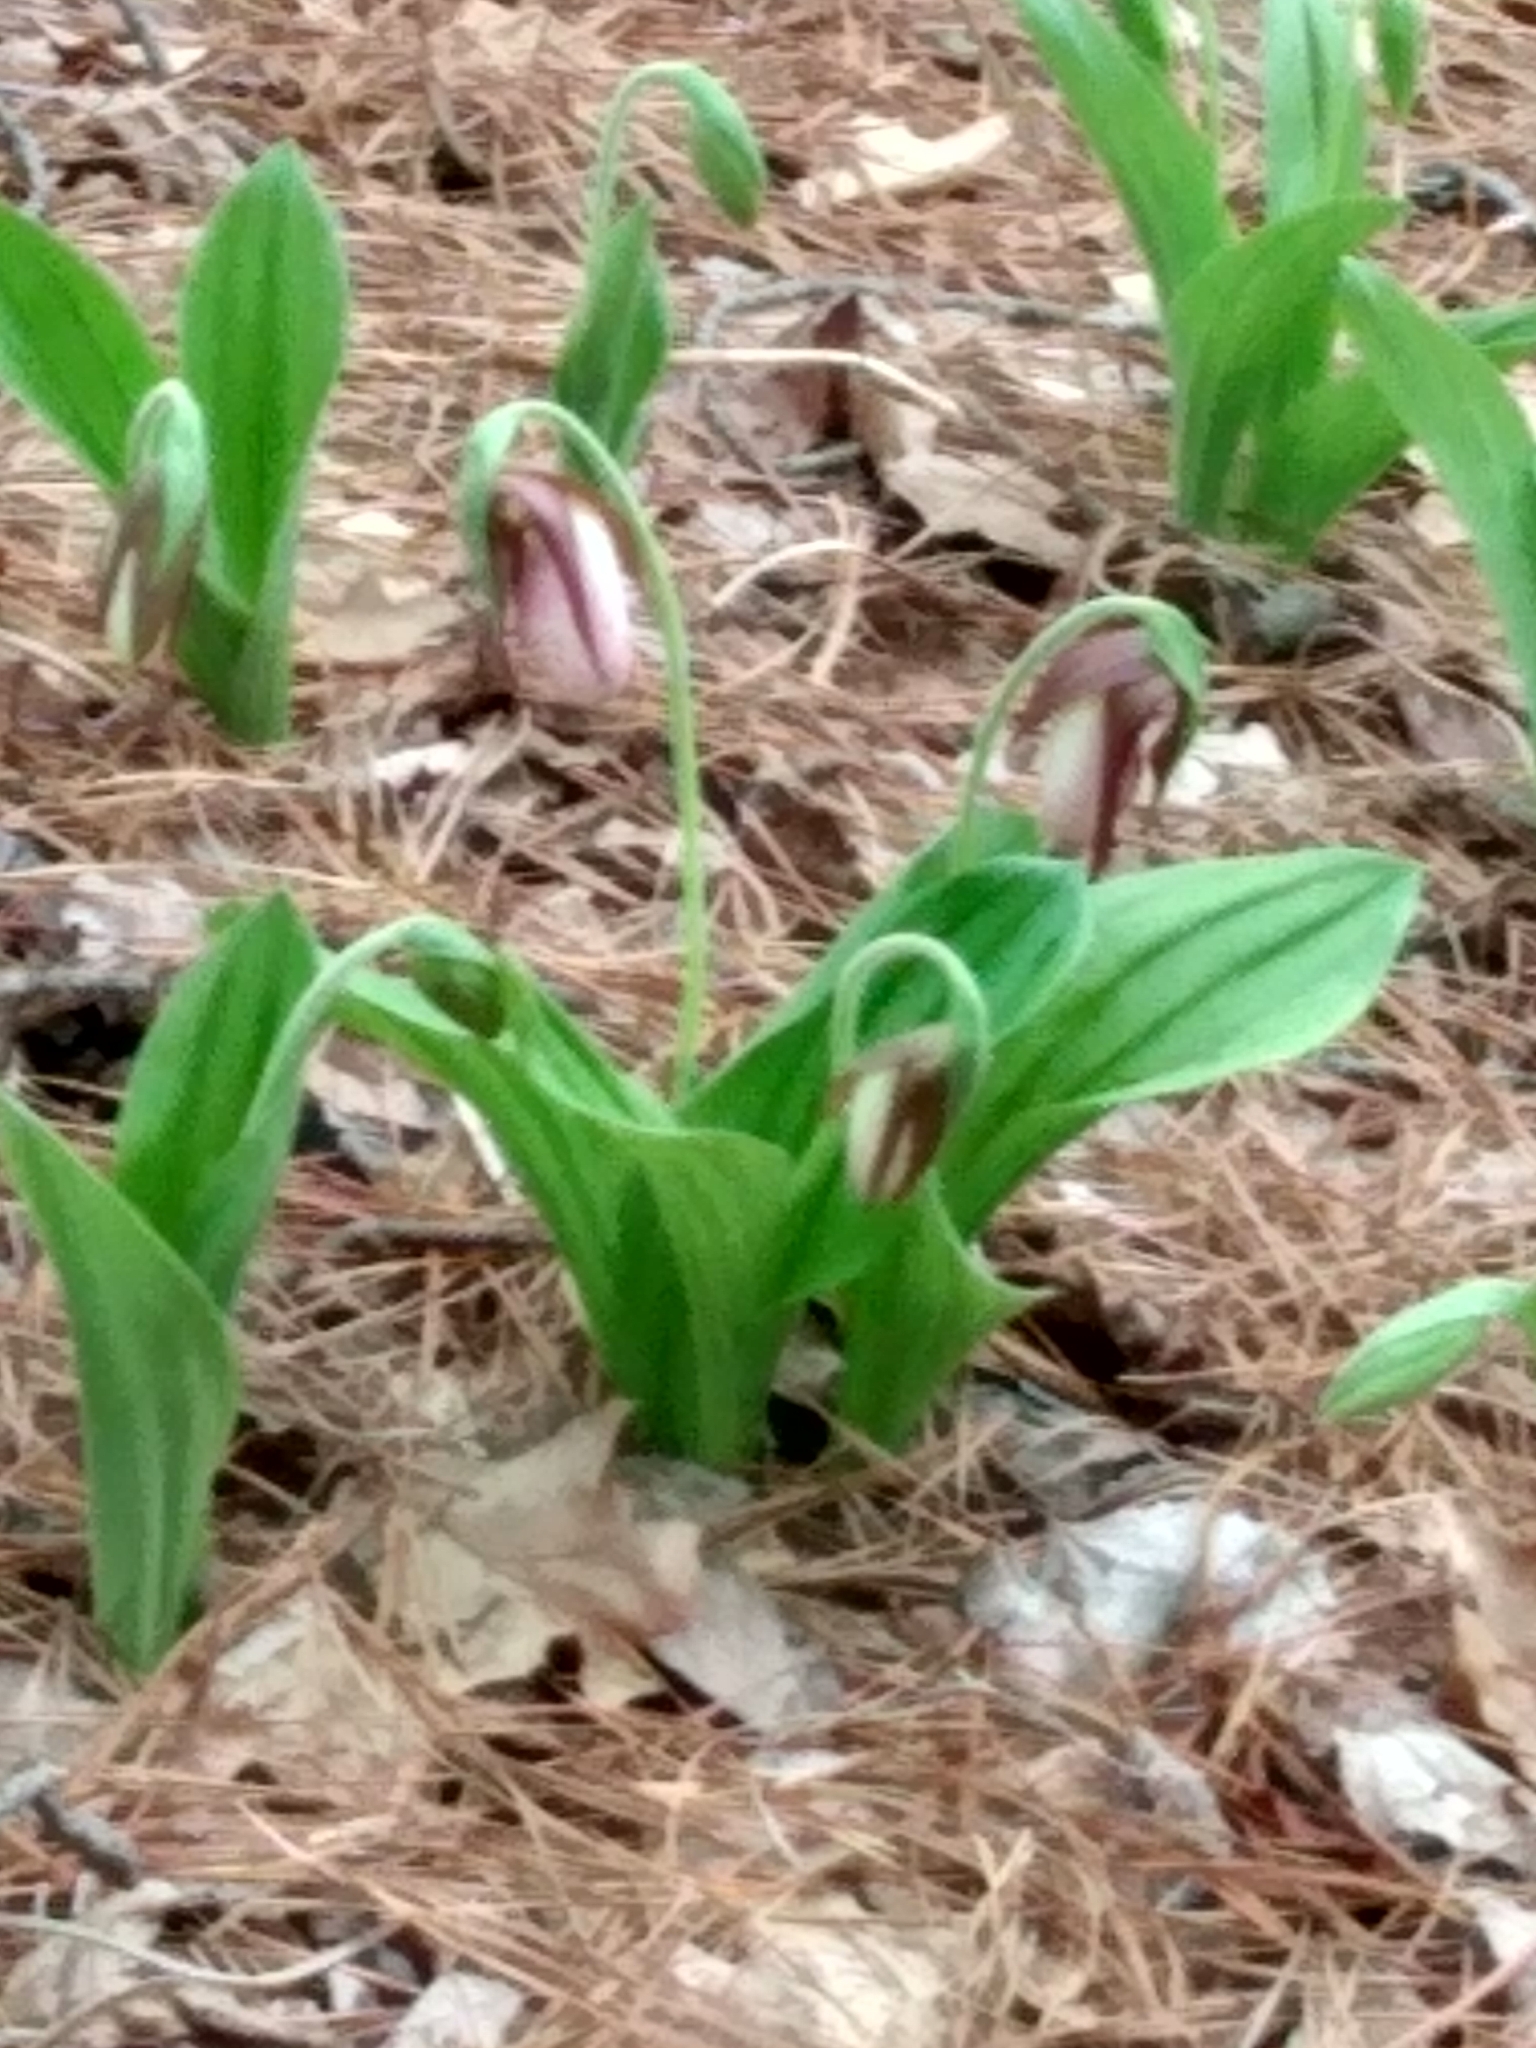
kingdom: Plantae
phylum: Tracheophyta
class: Liliopsida
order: Asparagales
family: Orchidaceae
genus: Cypripedium
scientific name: Cypripedium acaule
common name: Pink lady's-slipper
